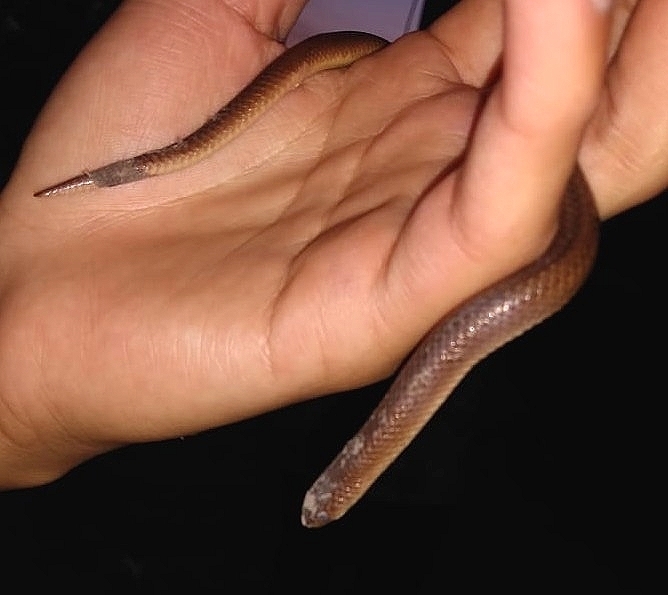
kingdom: Animalia
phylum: Chordata
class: Squamata
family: Colubridae
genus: Conopsis
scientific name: Conopsis lineata
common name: Lined tolucan earthsnake
